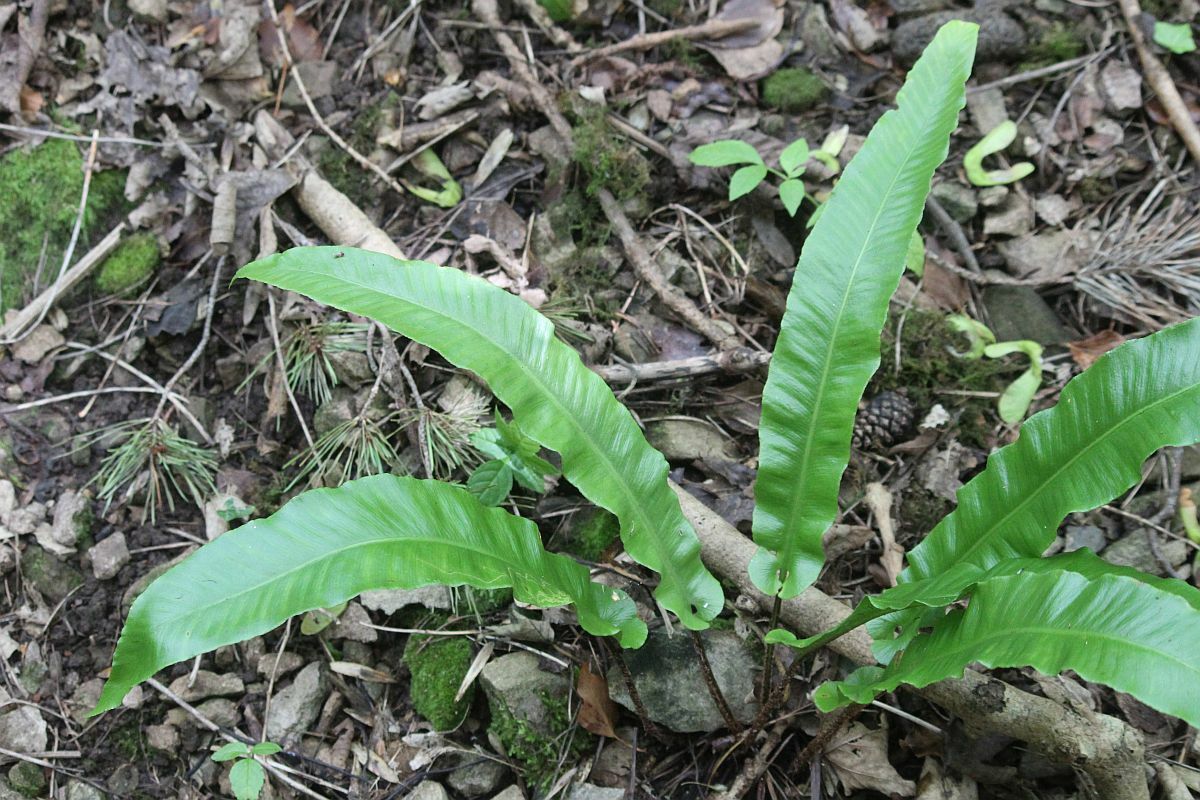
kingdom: Plantae
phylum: Tracheophyta
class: Polypodiopsida
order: Polypodiales
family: Aspleniaceae
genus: Asplenium
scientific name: Asplenium scolopendrium
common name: Hart's-tongue fern
